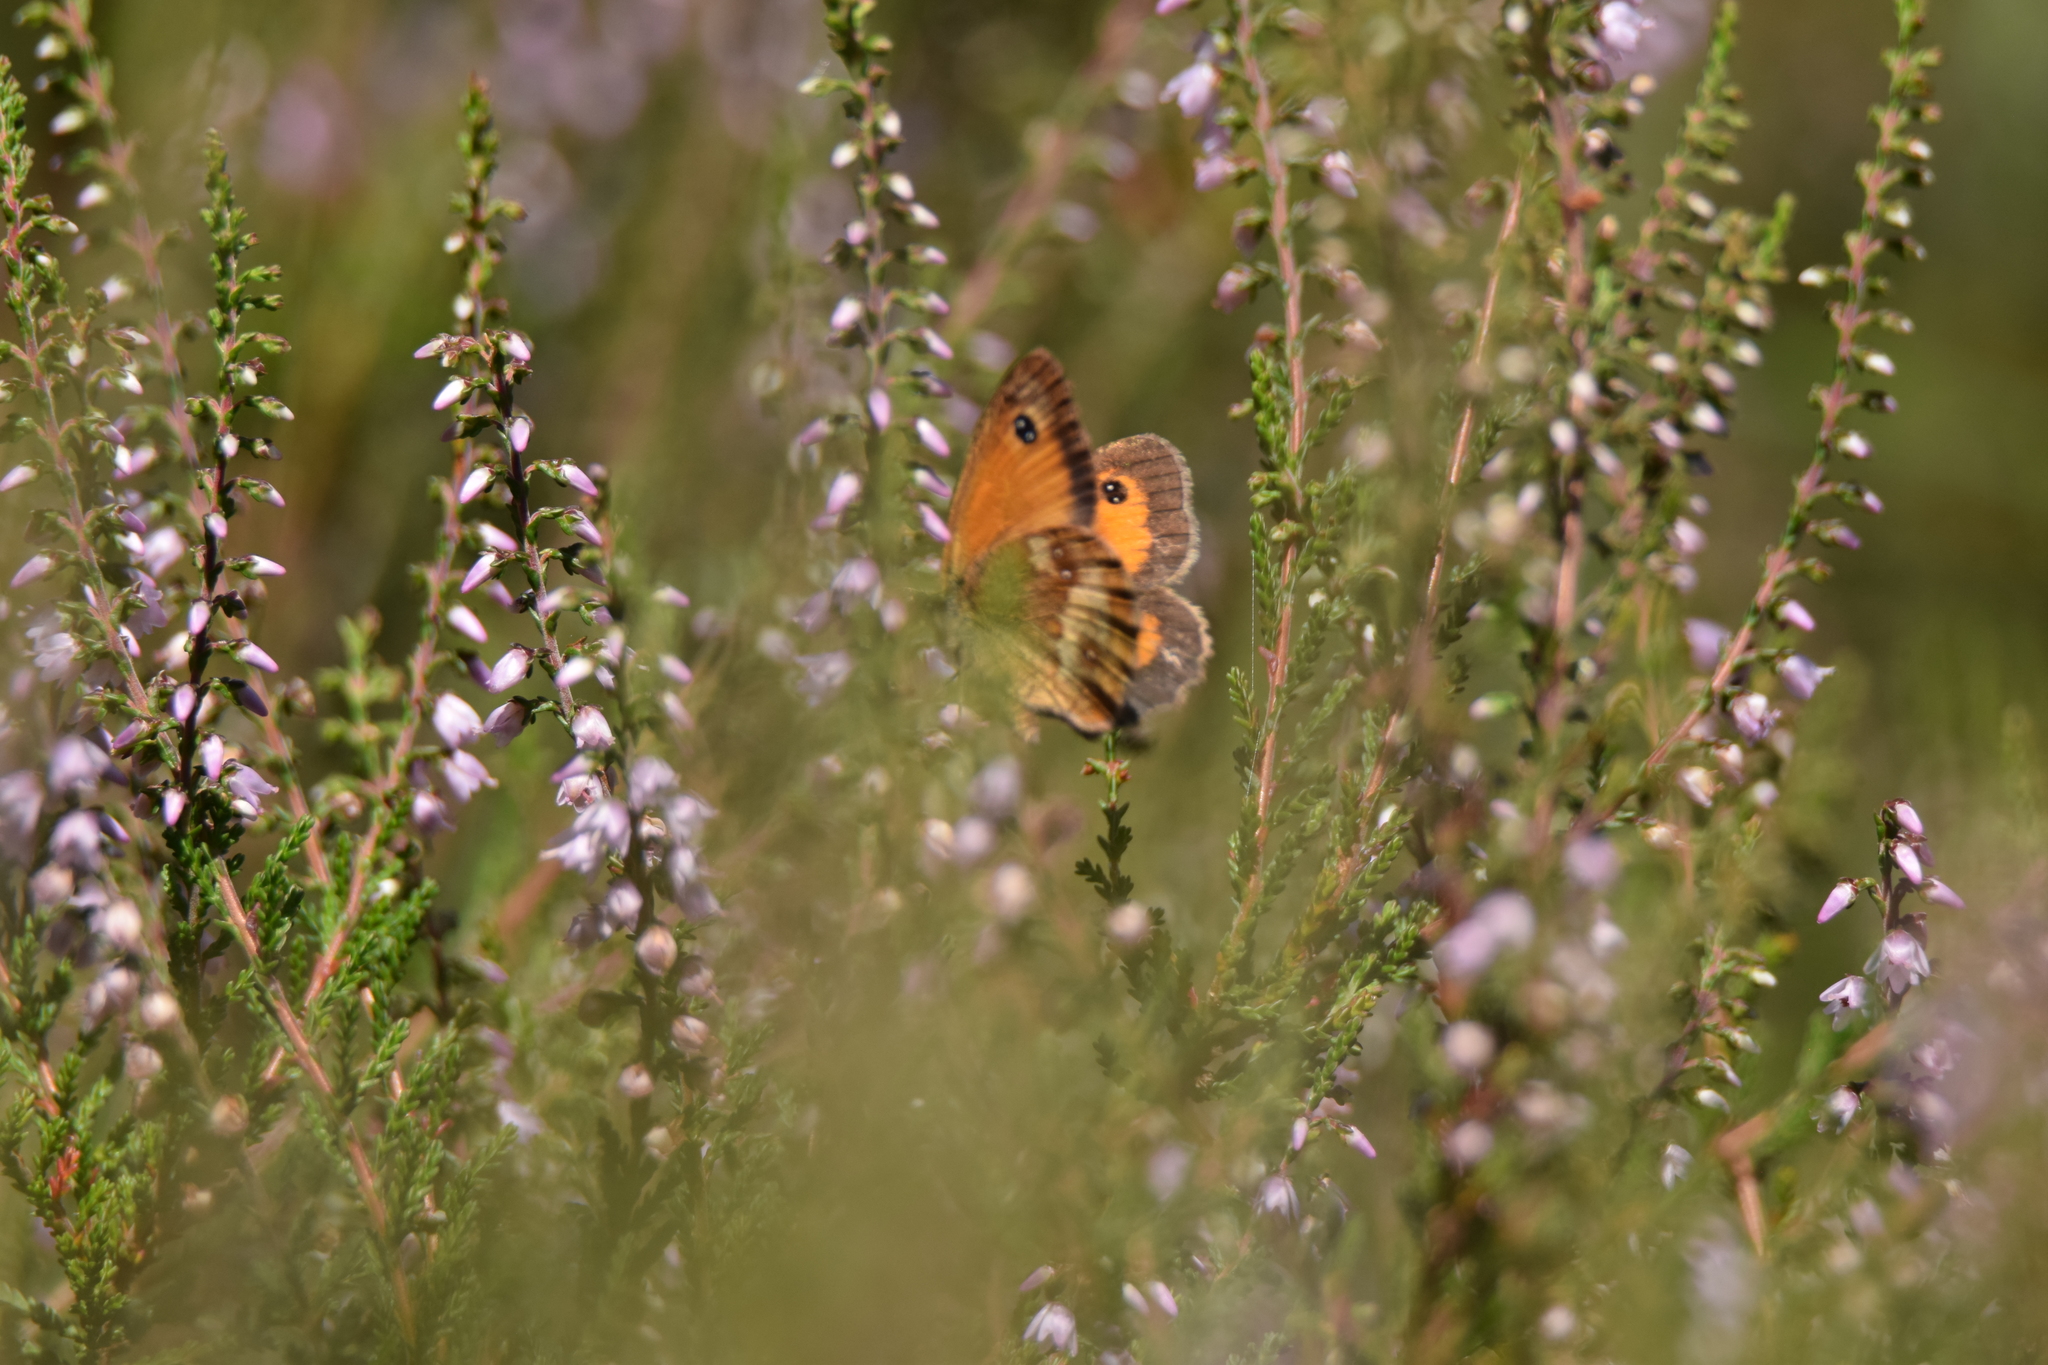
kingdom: Animalia
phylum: Arthropoda
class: Insecta
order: Lepidoptera
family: Nymphalidae
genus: Pyronia
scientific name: Pyronia tithonus
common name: Gatekeeper
